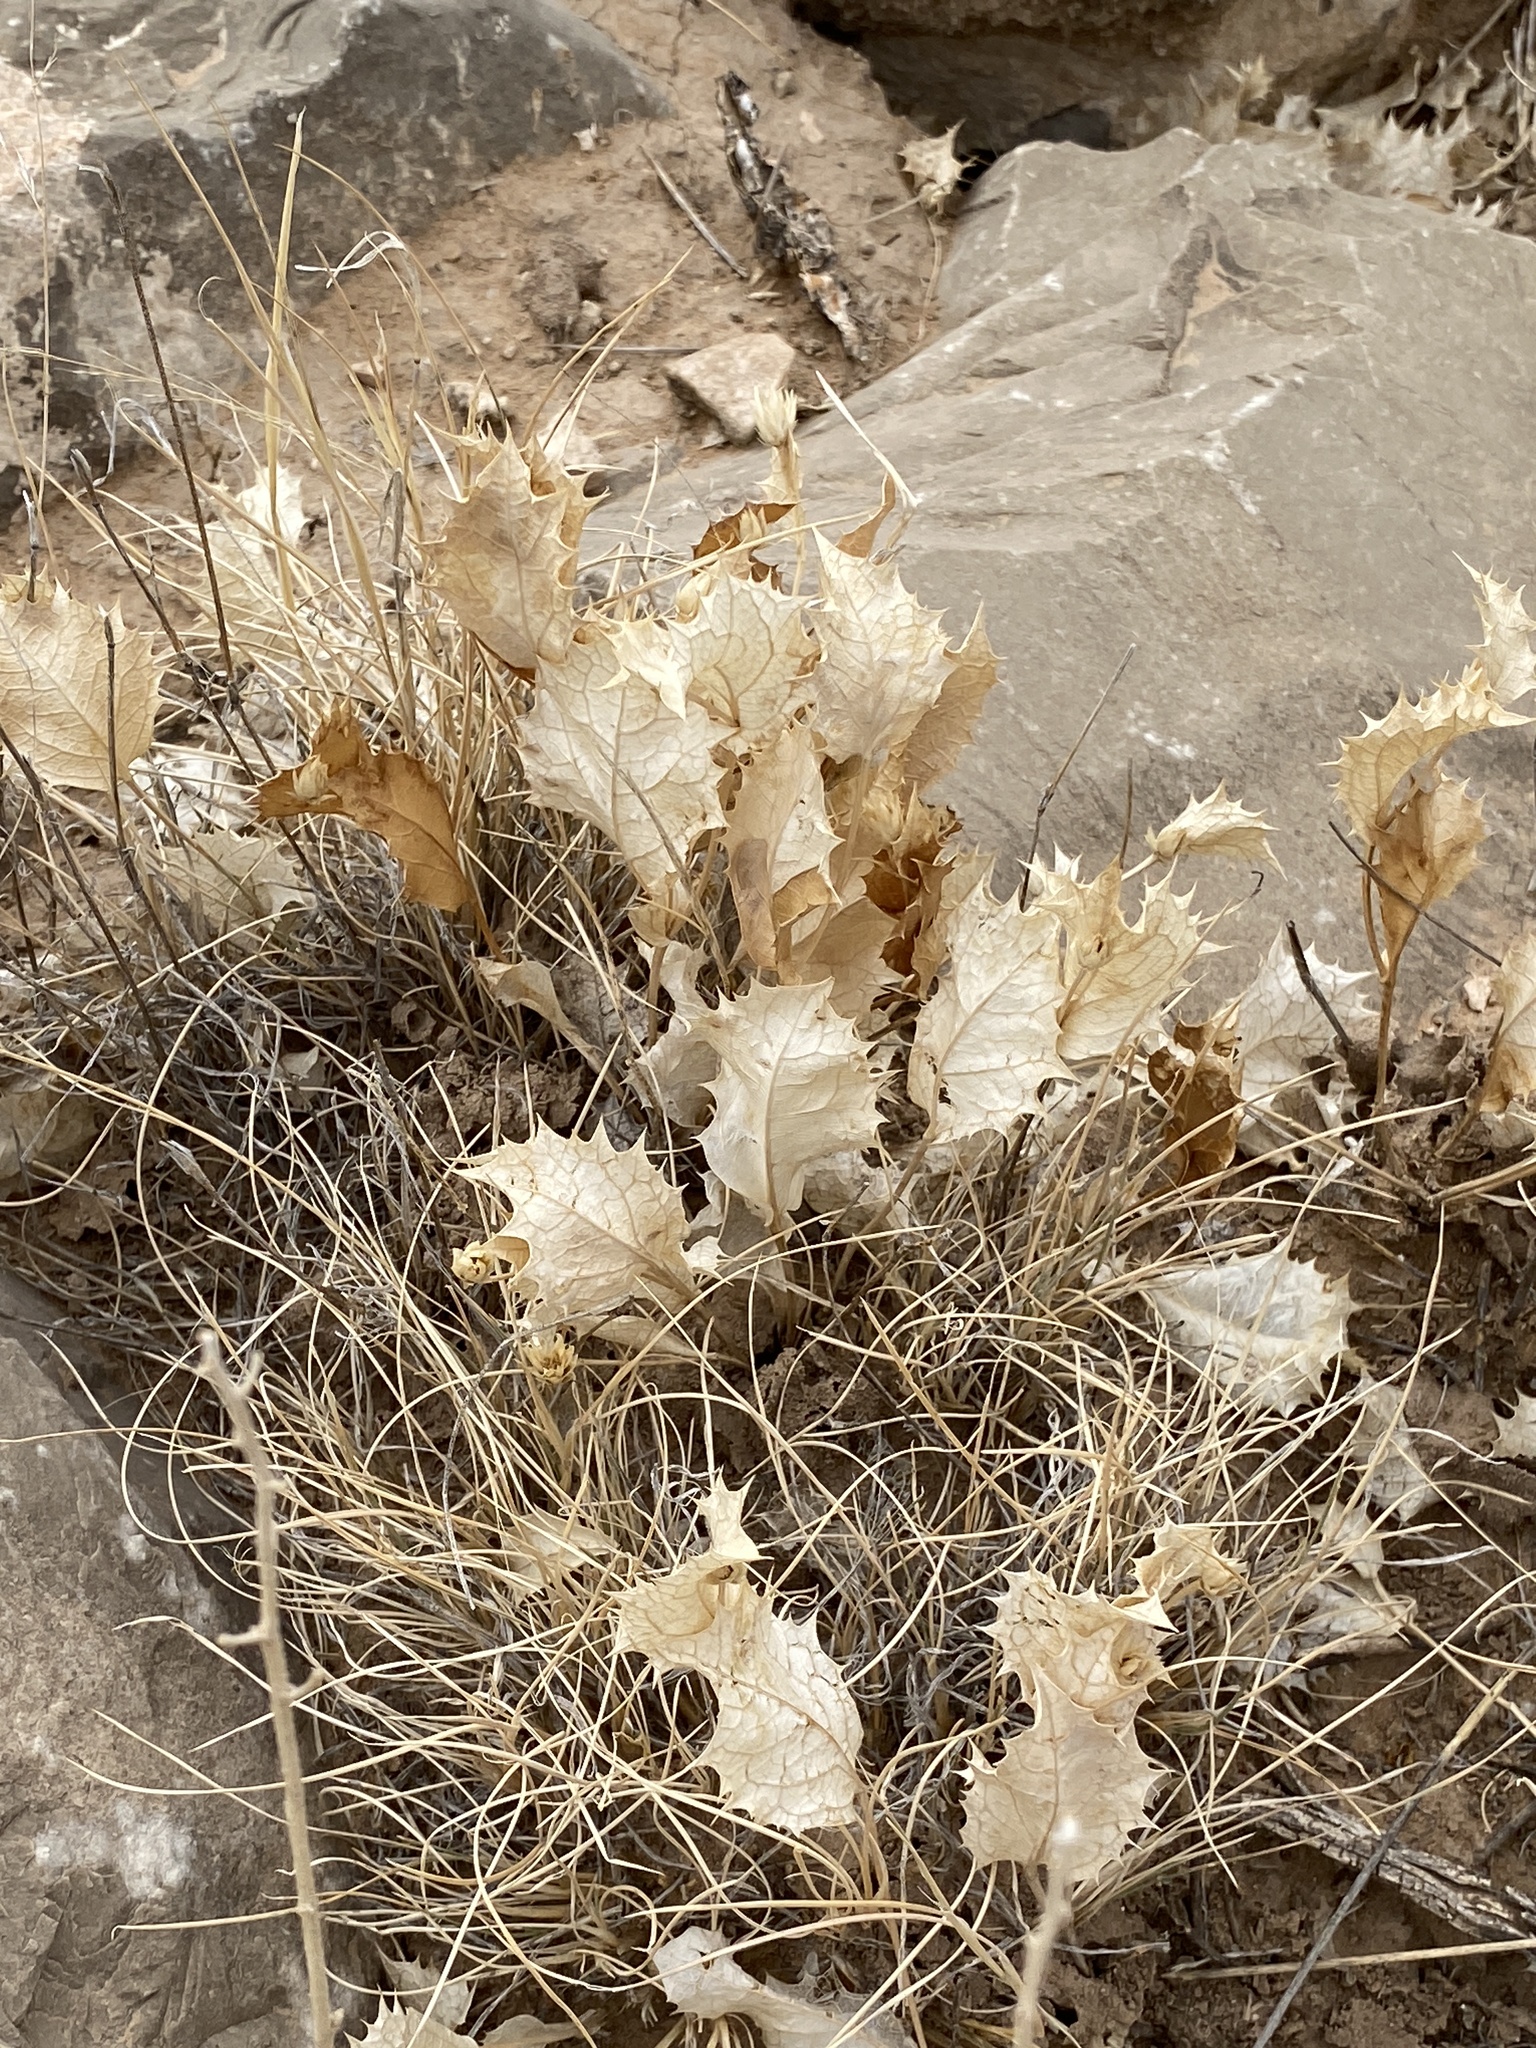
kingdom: Plantae
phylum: Tracheophyta
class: Magnoliopsida
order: Asterales
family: Asteraceae
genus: Acourtia
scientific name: Acourtia nana
